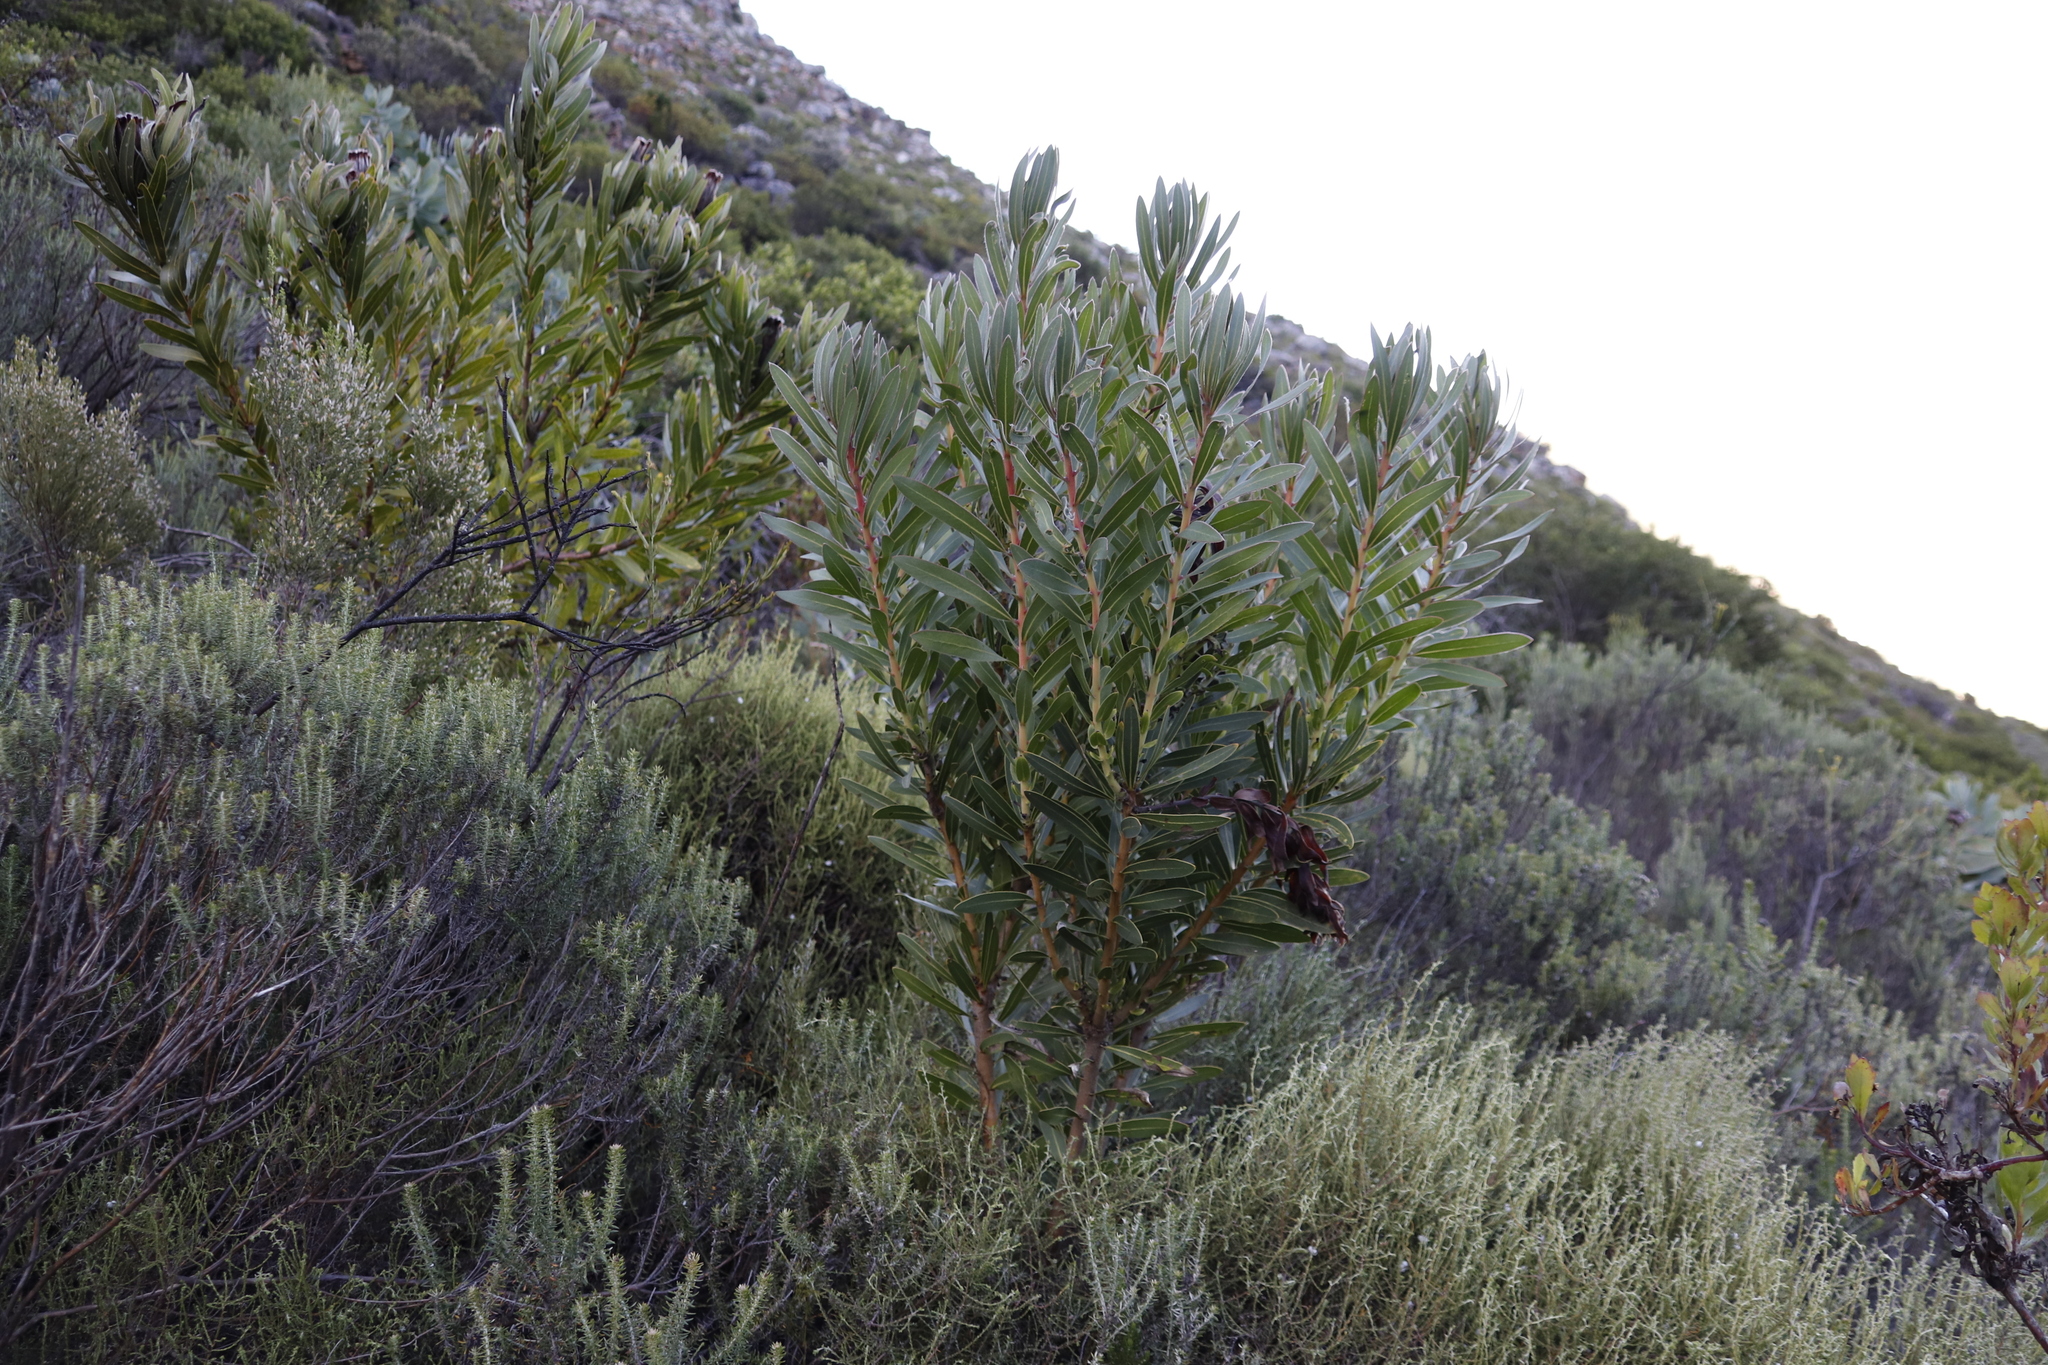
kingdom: Plantae
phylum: Tracheophyta
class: Magnoliopsida
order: Proteales
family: Proteaceae
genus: Protea
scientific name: Protea lepidocarpodendron
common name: Black-bearded protea
